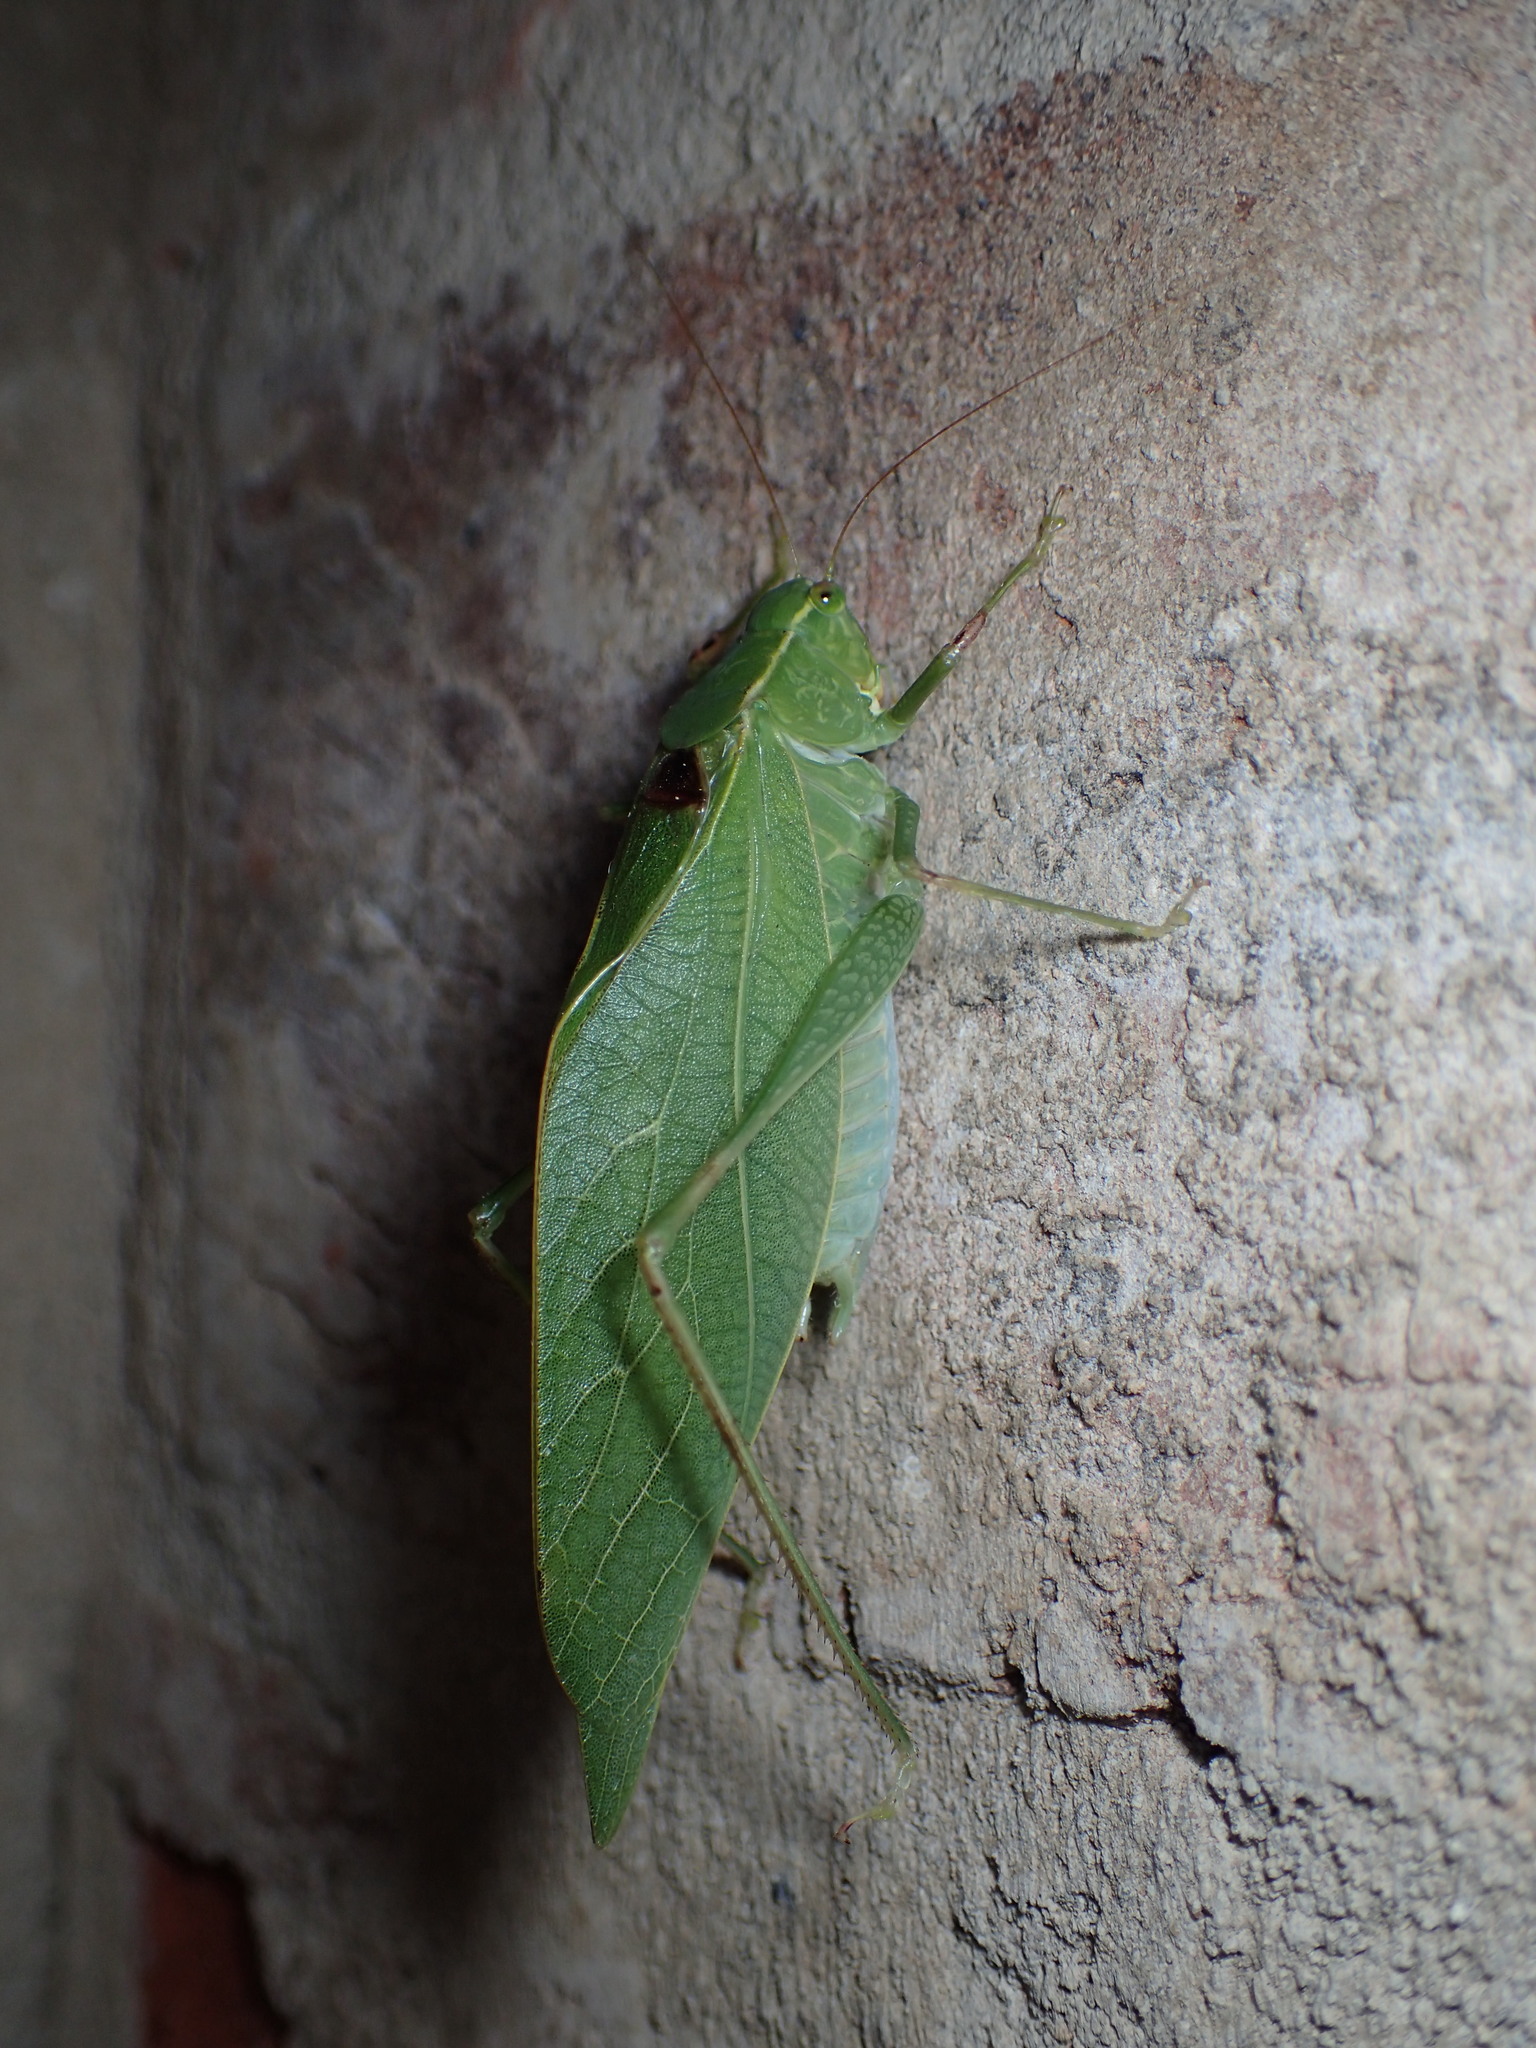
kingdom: Animalia
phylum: Arthropoda
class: Insecta
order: Orthoptera
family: Tettigoniidae
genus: Microcentrum
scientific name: Microcentrum retinerve
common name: Angular-winged katydid
